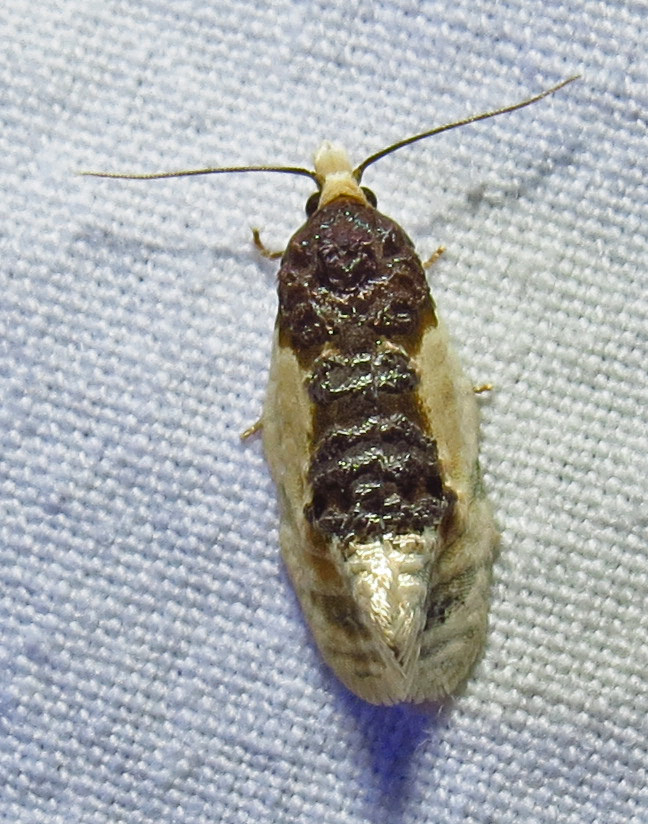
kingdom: Animalia
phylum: Arthropoda
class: Insecta
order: Lepidoptera
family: Tortricidae
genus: Henricus
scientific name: Henricus edwardsiana
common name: Contrasting henricus moth
